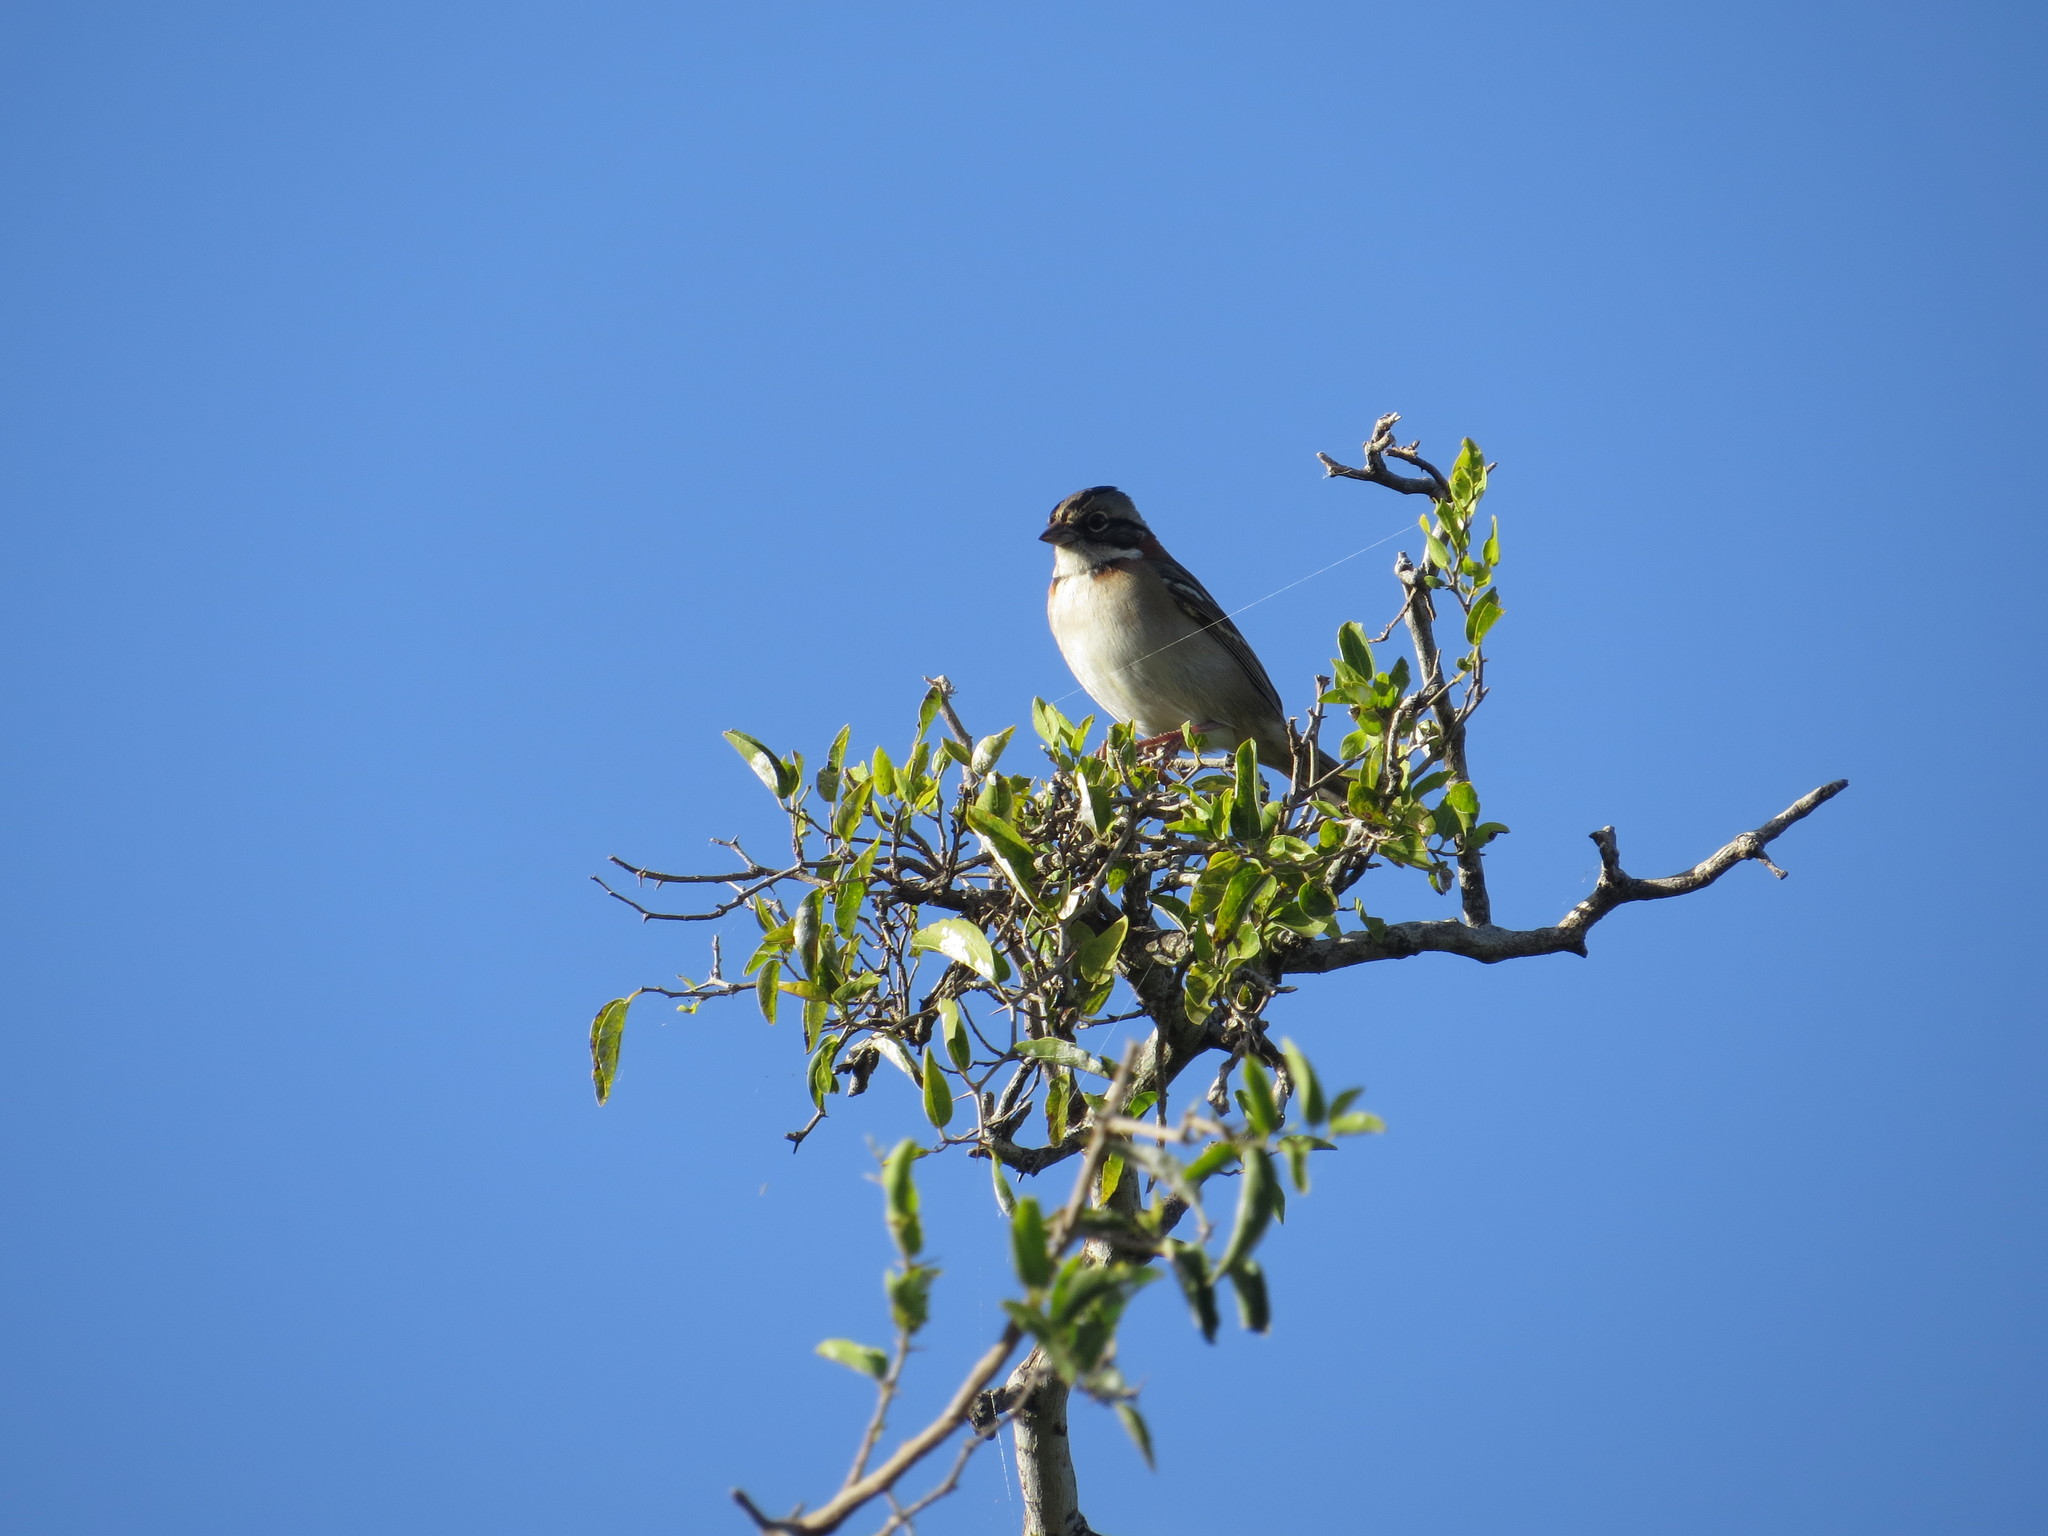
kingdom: Animalia
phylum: Chordata
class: Aves
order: Passeriformes
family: Passerellidae
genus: Zonotrichia
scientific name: Zonotrichia capensis
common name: Rufous-collared sparrow
